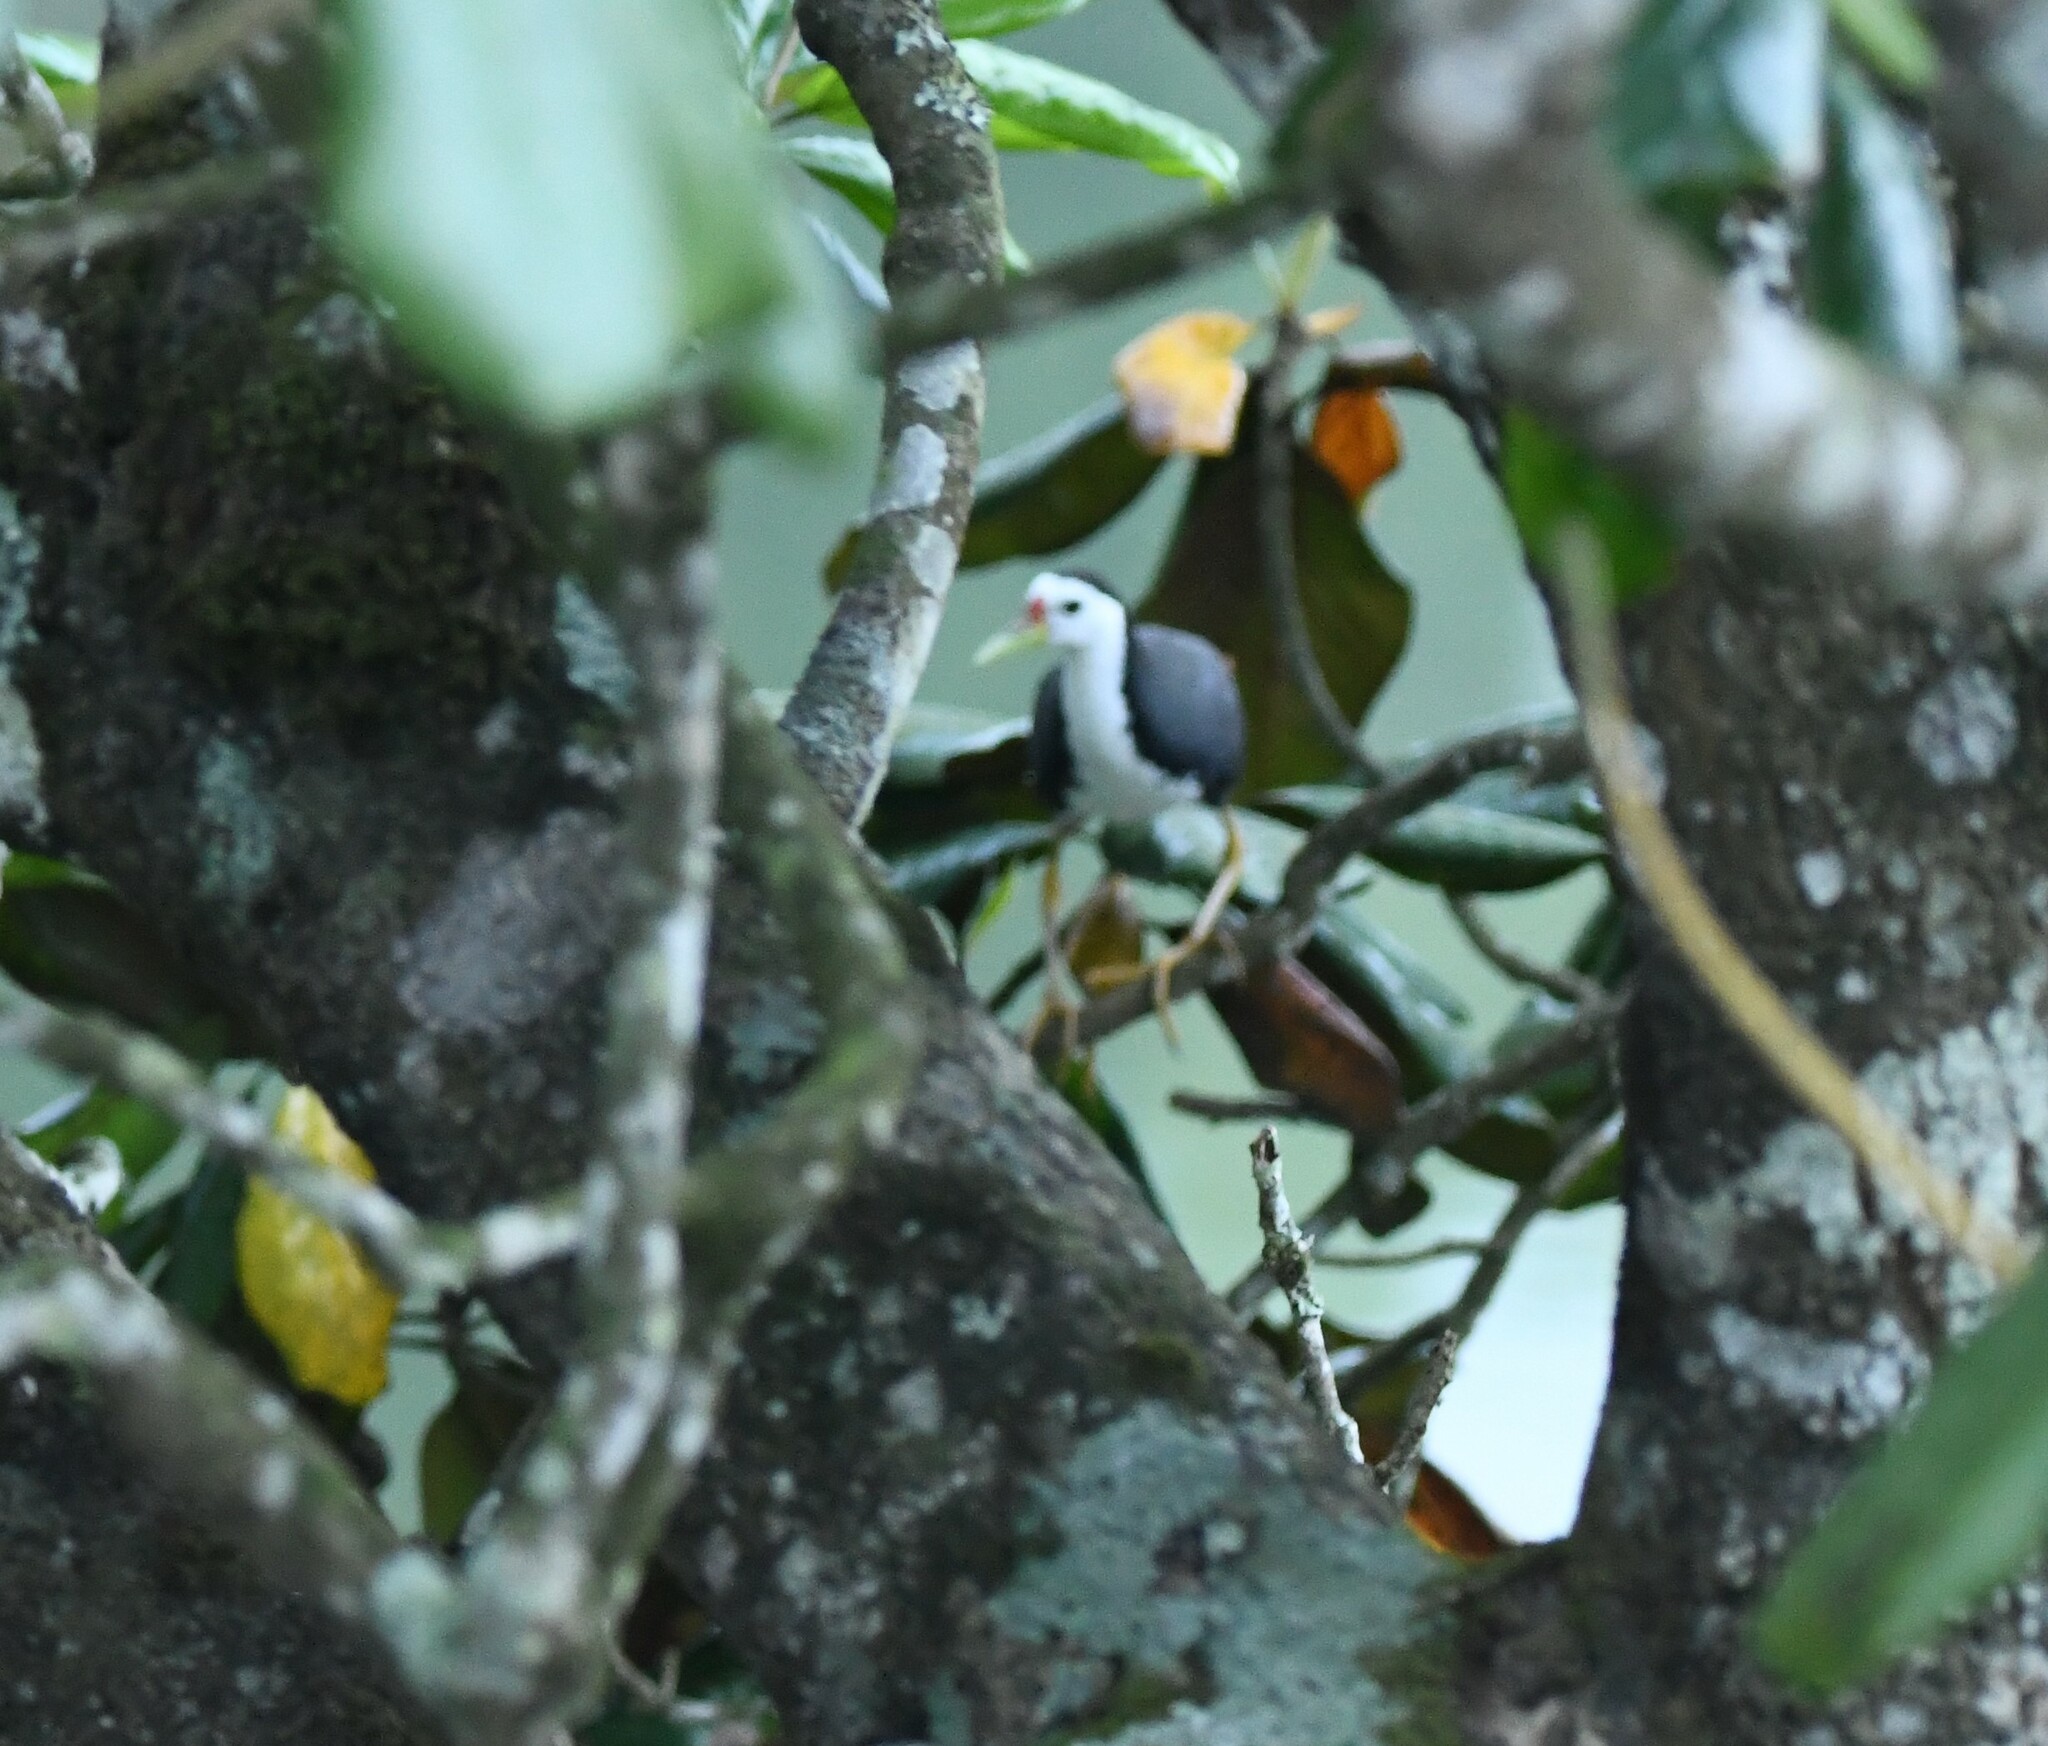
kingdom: Animalia
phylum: Chordata
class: Aves
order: Gruiformes
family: Rallidae
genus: Amaurornis
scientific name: Amaurornis phoenicurus
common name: White-breasted waterhen
